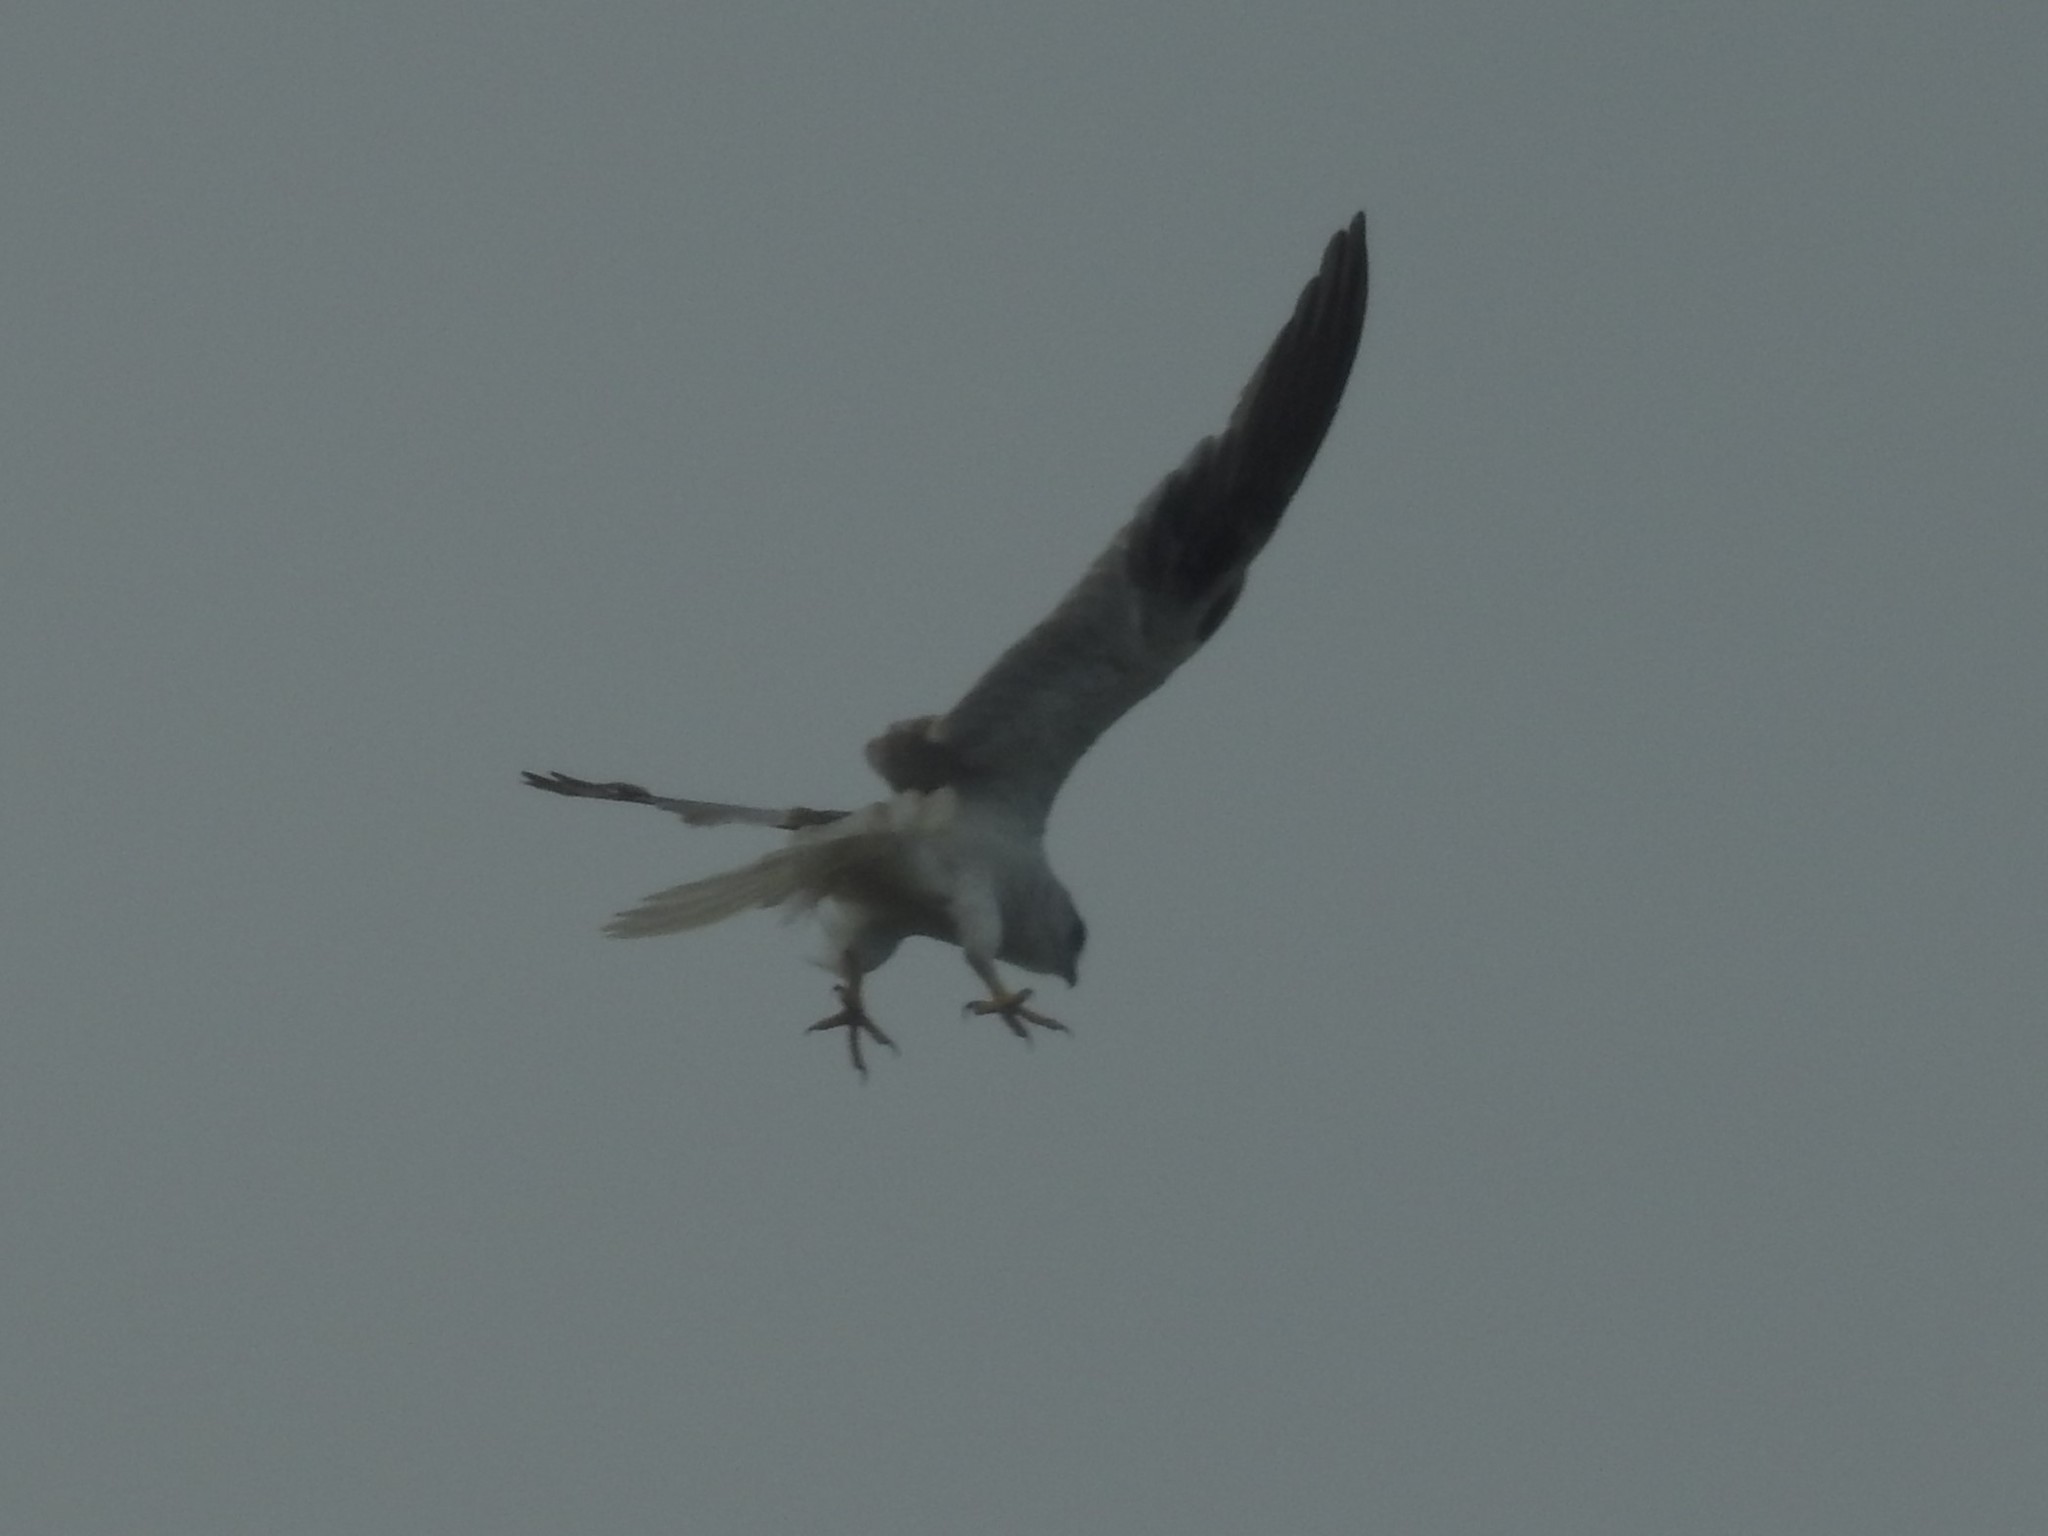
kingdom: Animalia
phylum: Chordata
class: Aves
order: Accipitriformes
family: Accipitridae
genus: Elanus
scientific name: Elanus axillaris
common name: Black-shouldered kite
